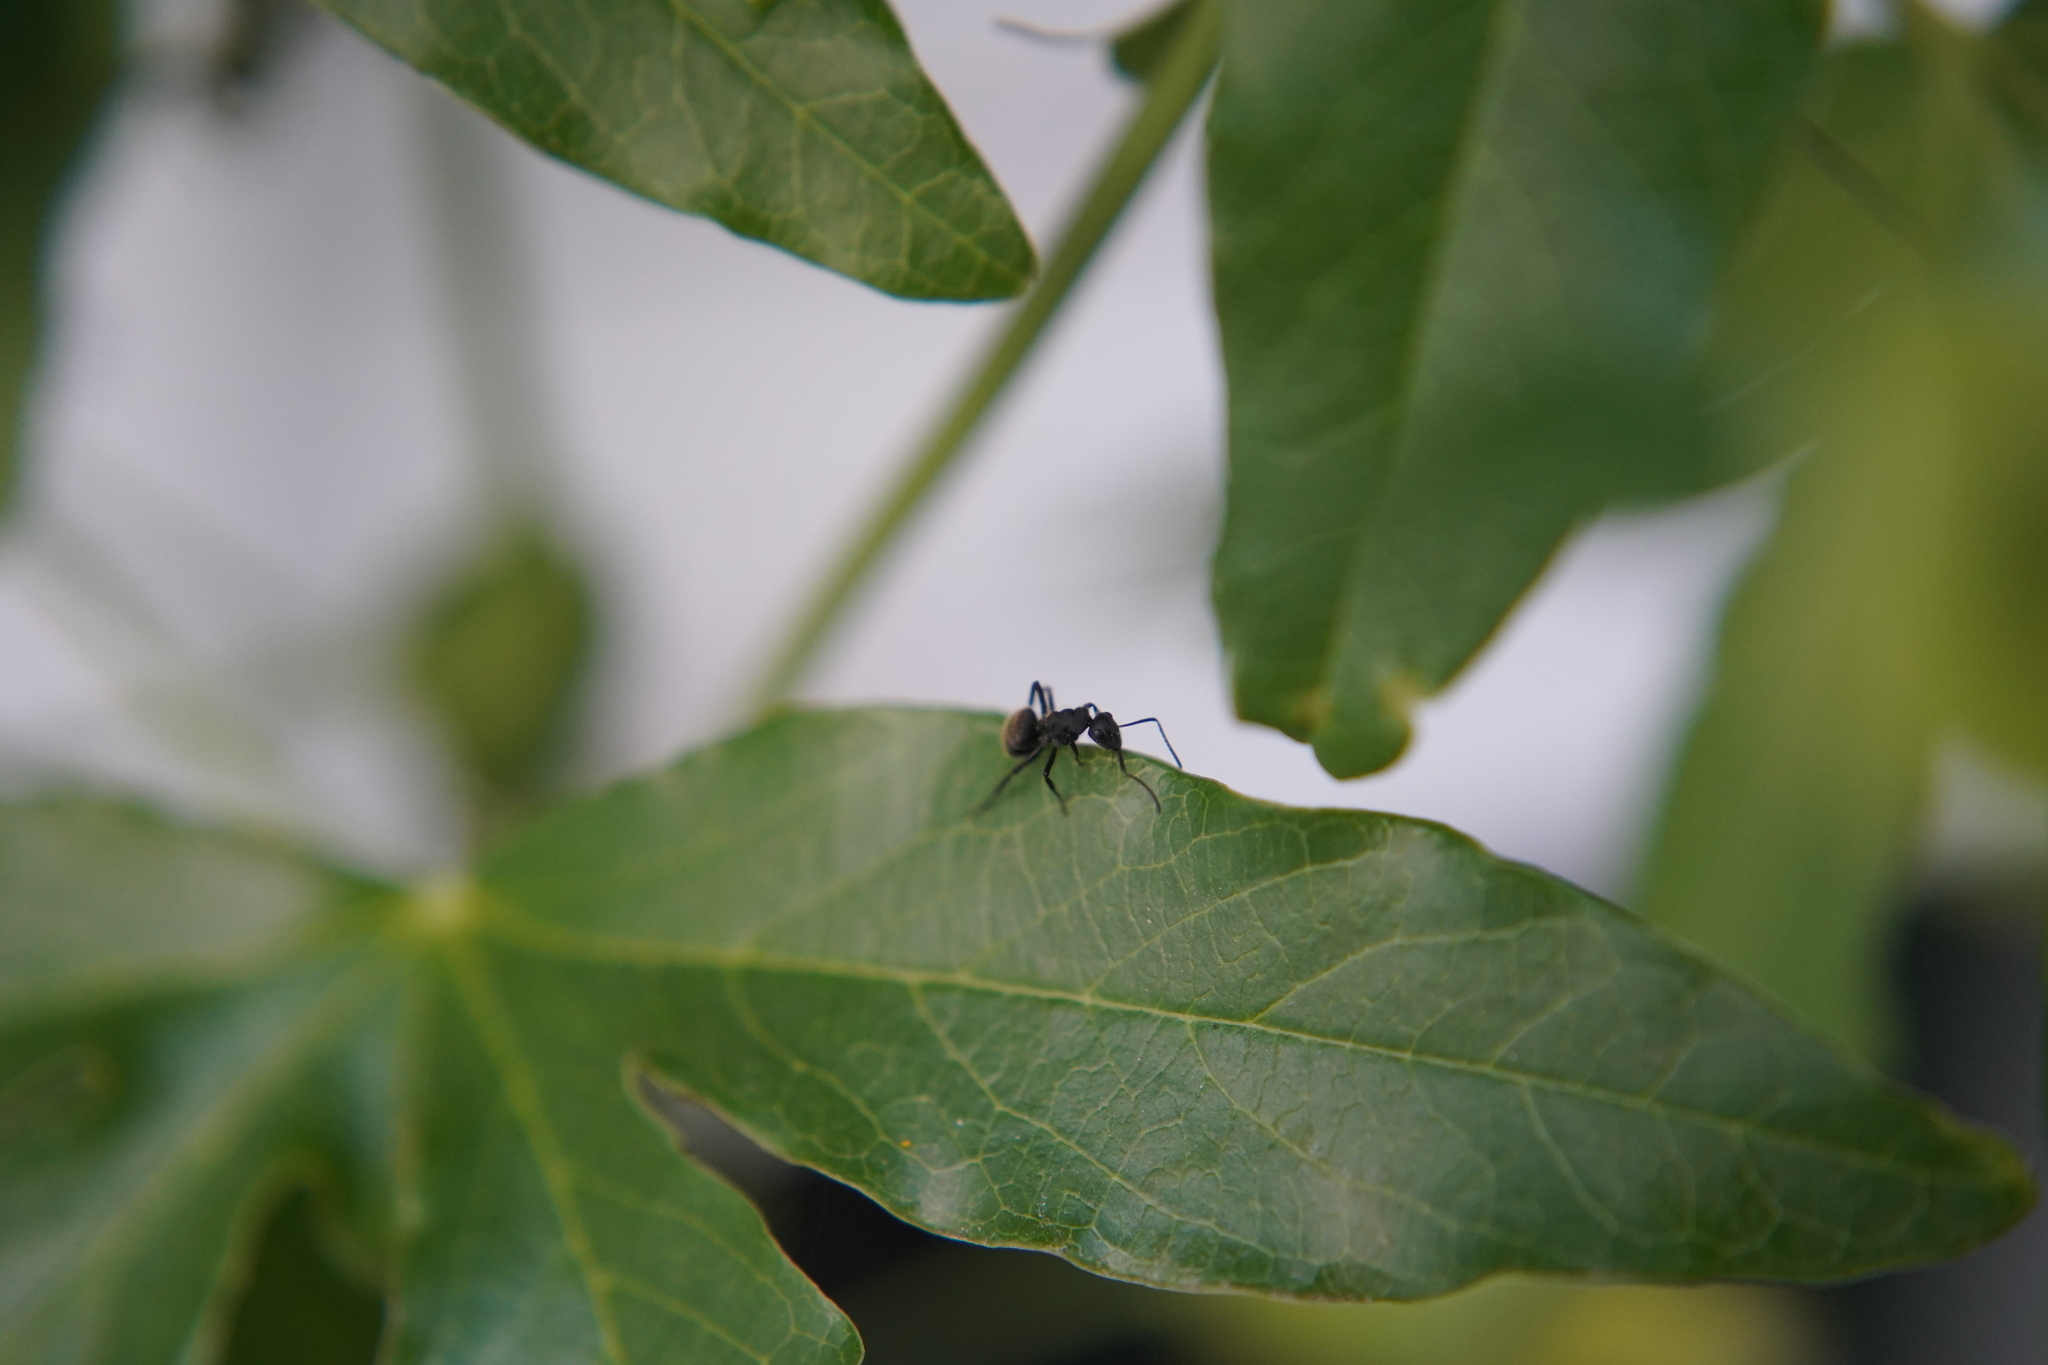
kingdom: Animalia
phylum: Arthropoda
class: Insecta
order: Hymenoptera
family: Formicidae
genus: Camponotus
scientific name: Camponotus mus
